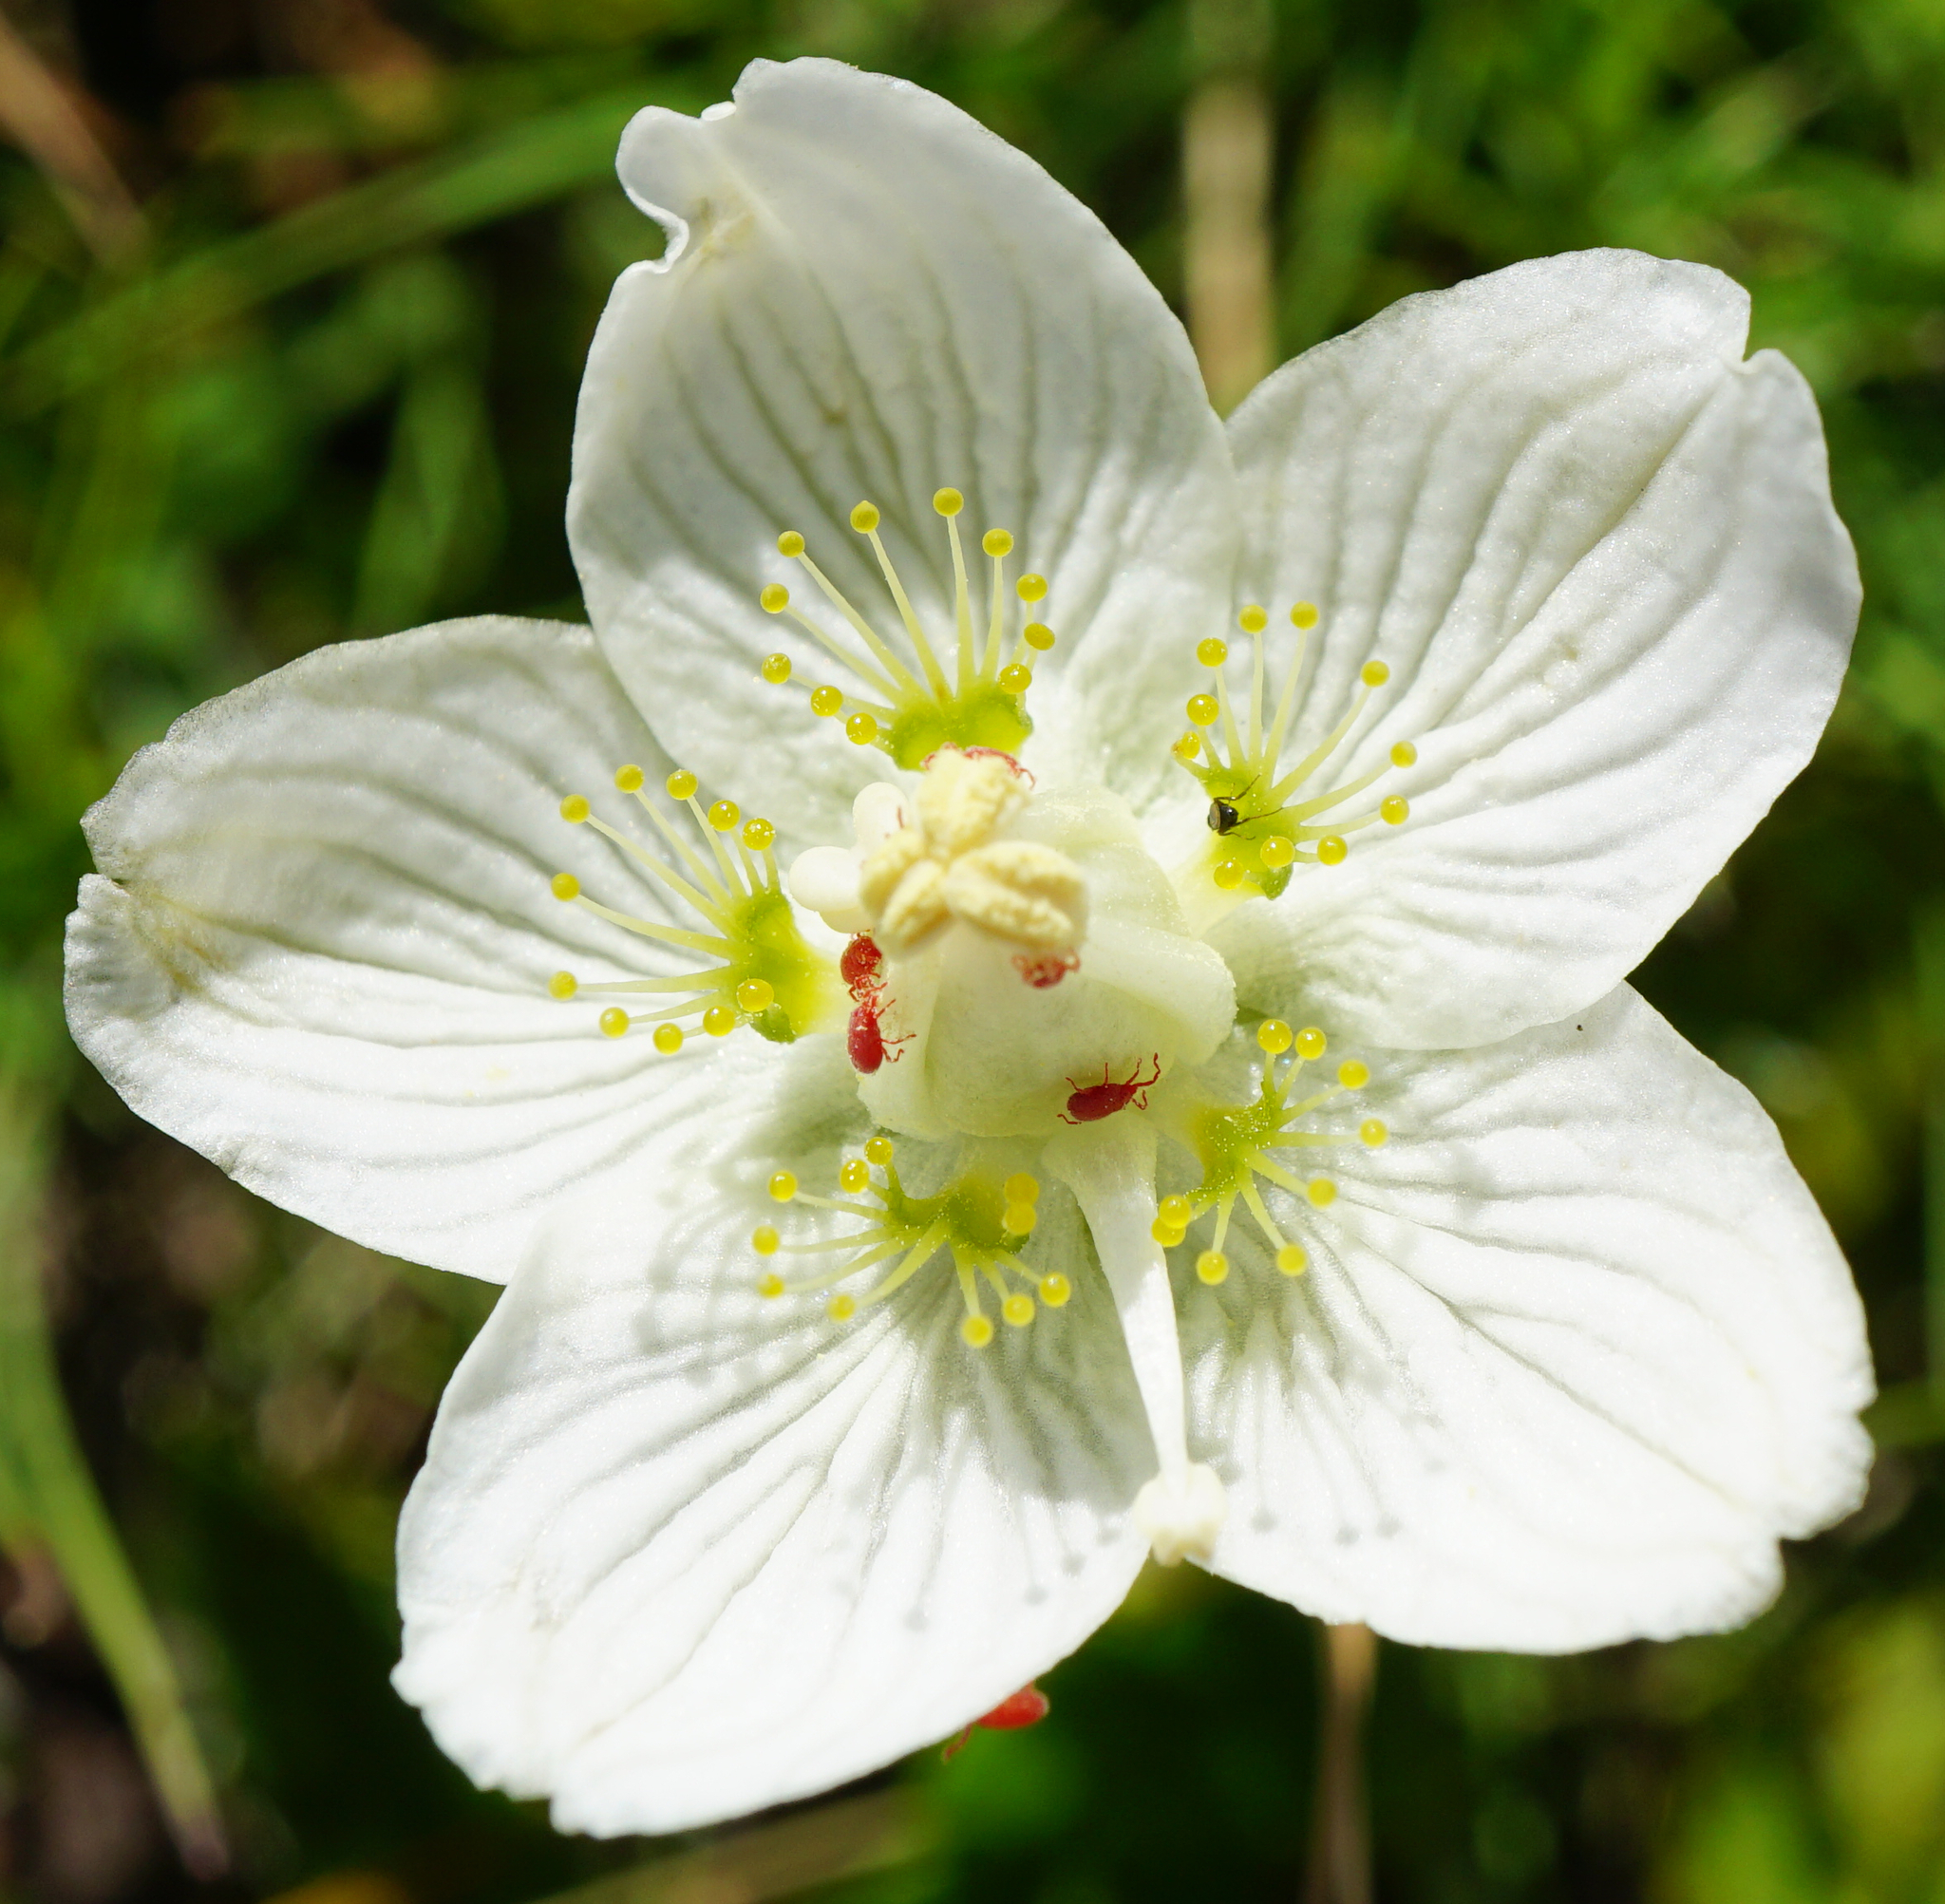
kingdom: Plantae
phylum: Tracheophyta
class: Magnoliopsida
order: Celastrales
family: Parnassiaceae
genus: Parnassia
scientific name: Parnassia palustris
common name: Grass-of-parnassus
